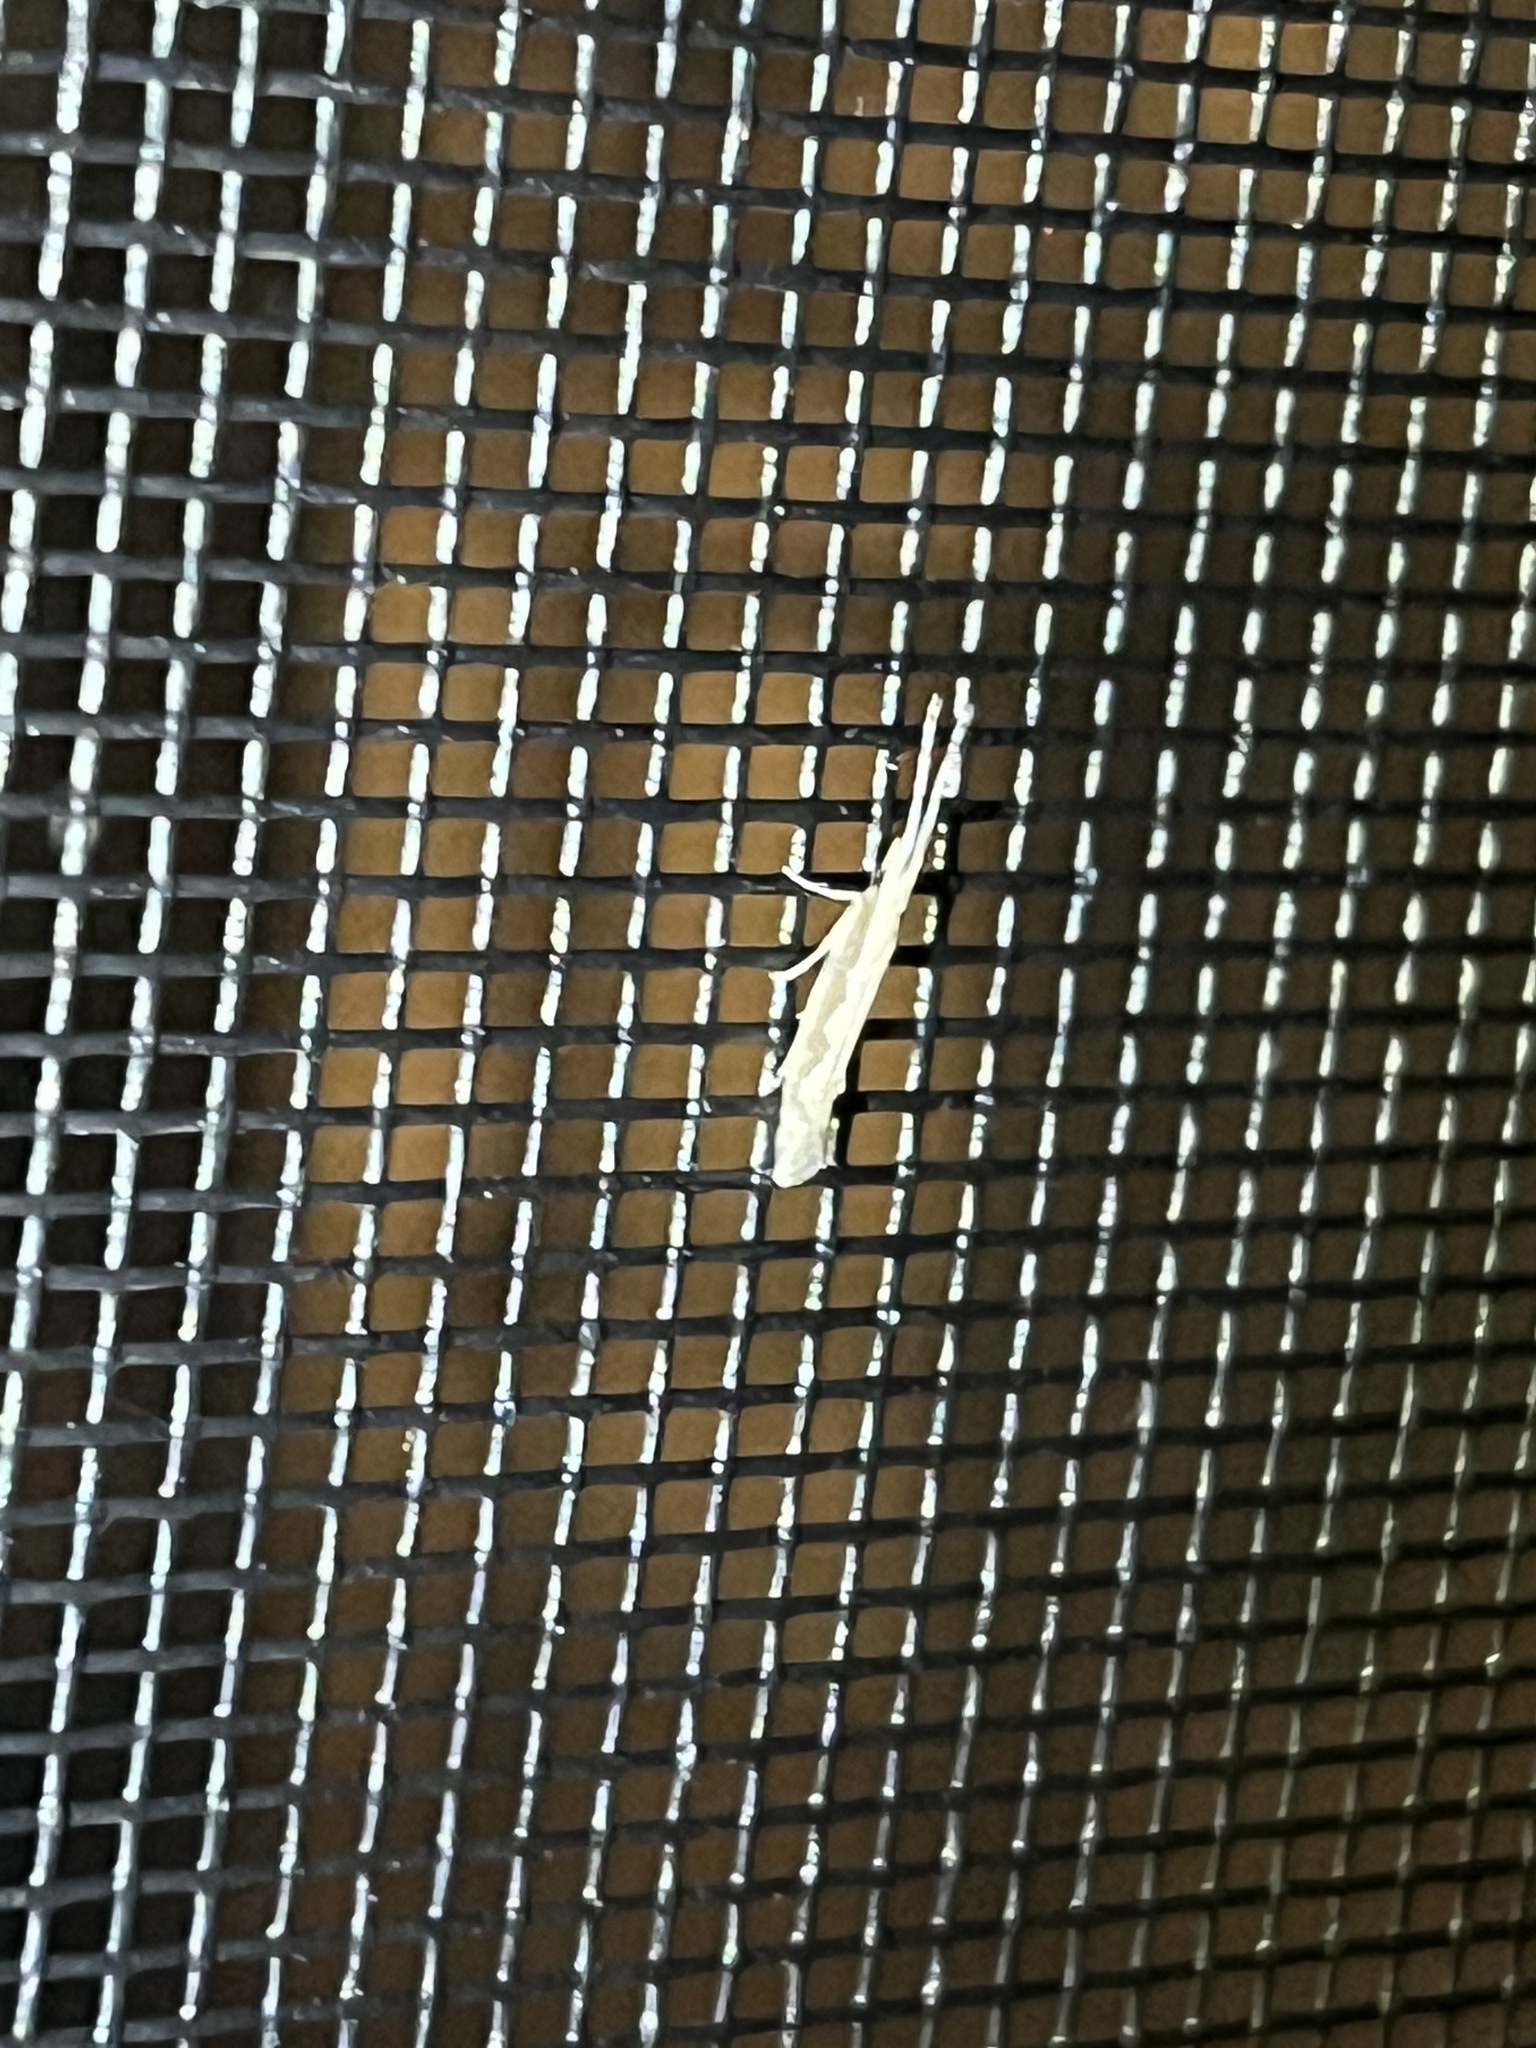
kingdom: Animalia
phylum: Arthropoda
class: Insecta
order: Lepidoptera
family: Plutellidae
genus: Plutella
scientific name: Plutella xylostella
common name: Diamond-back moth
